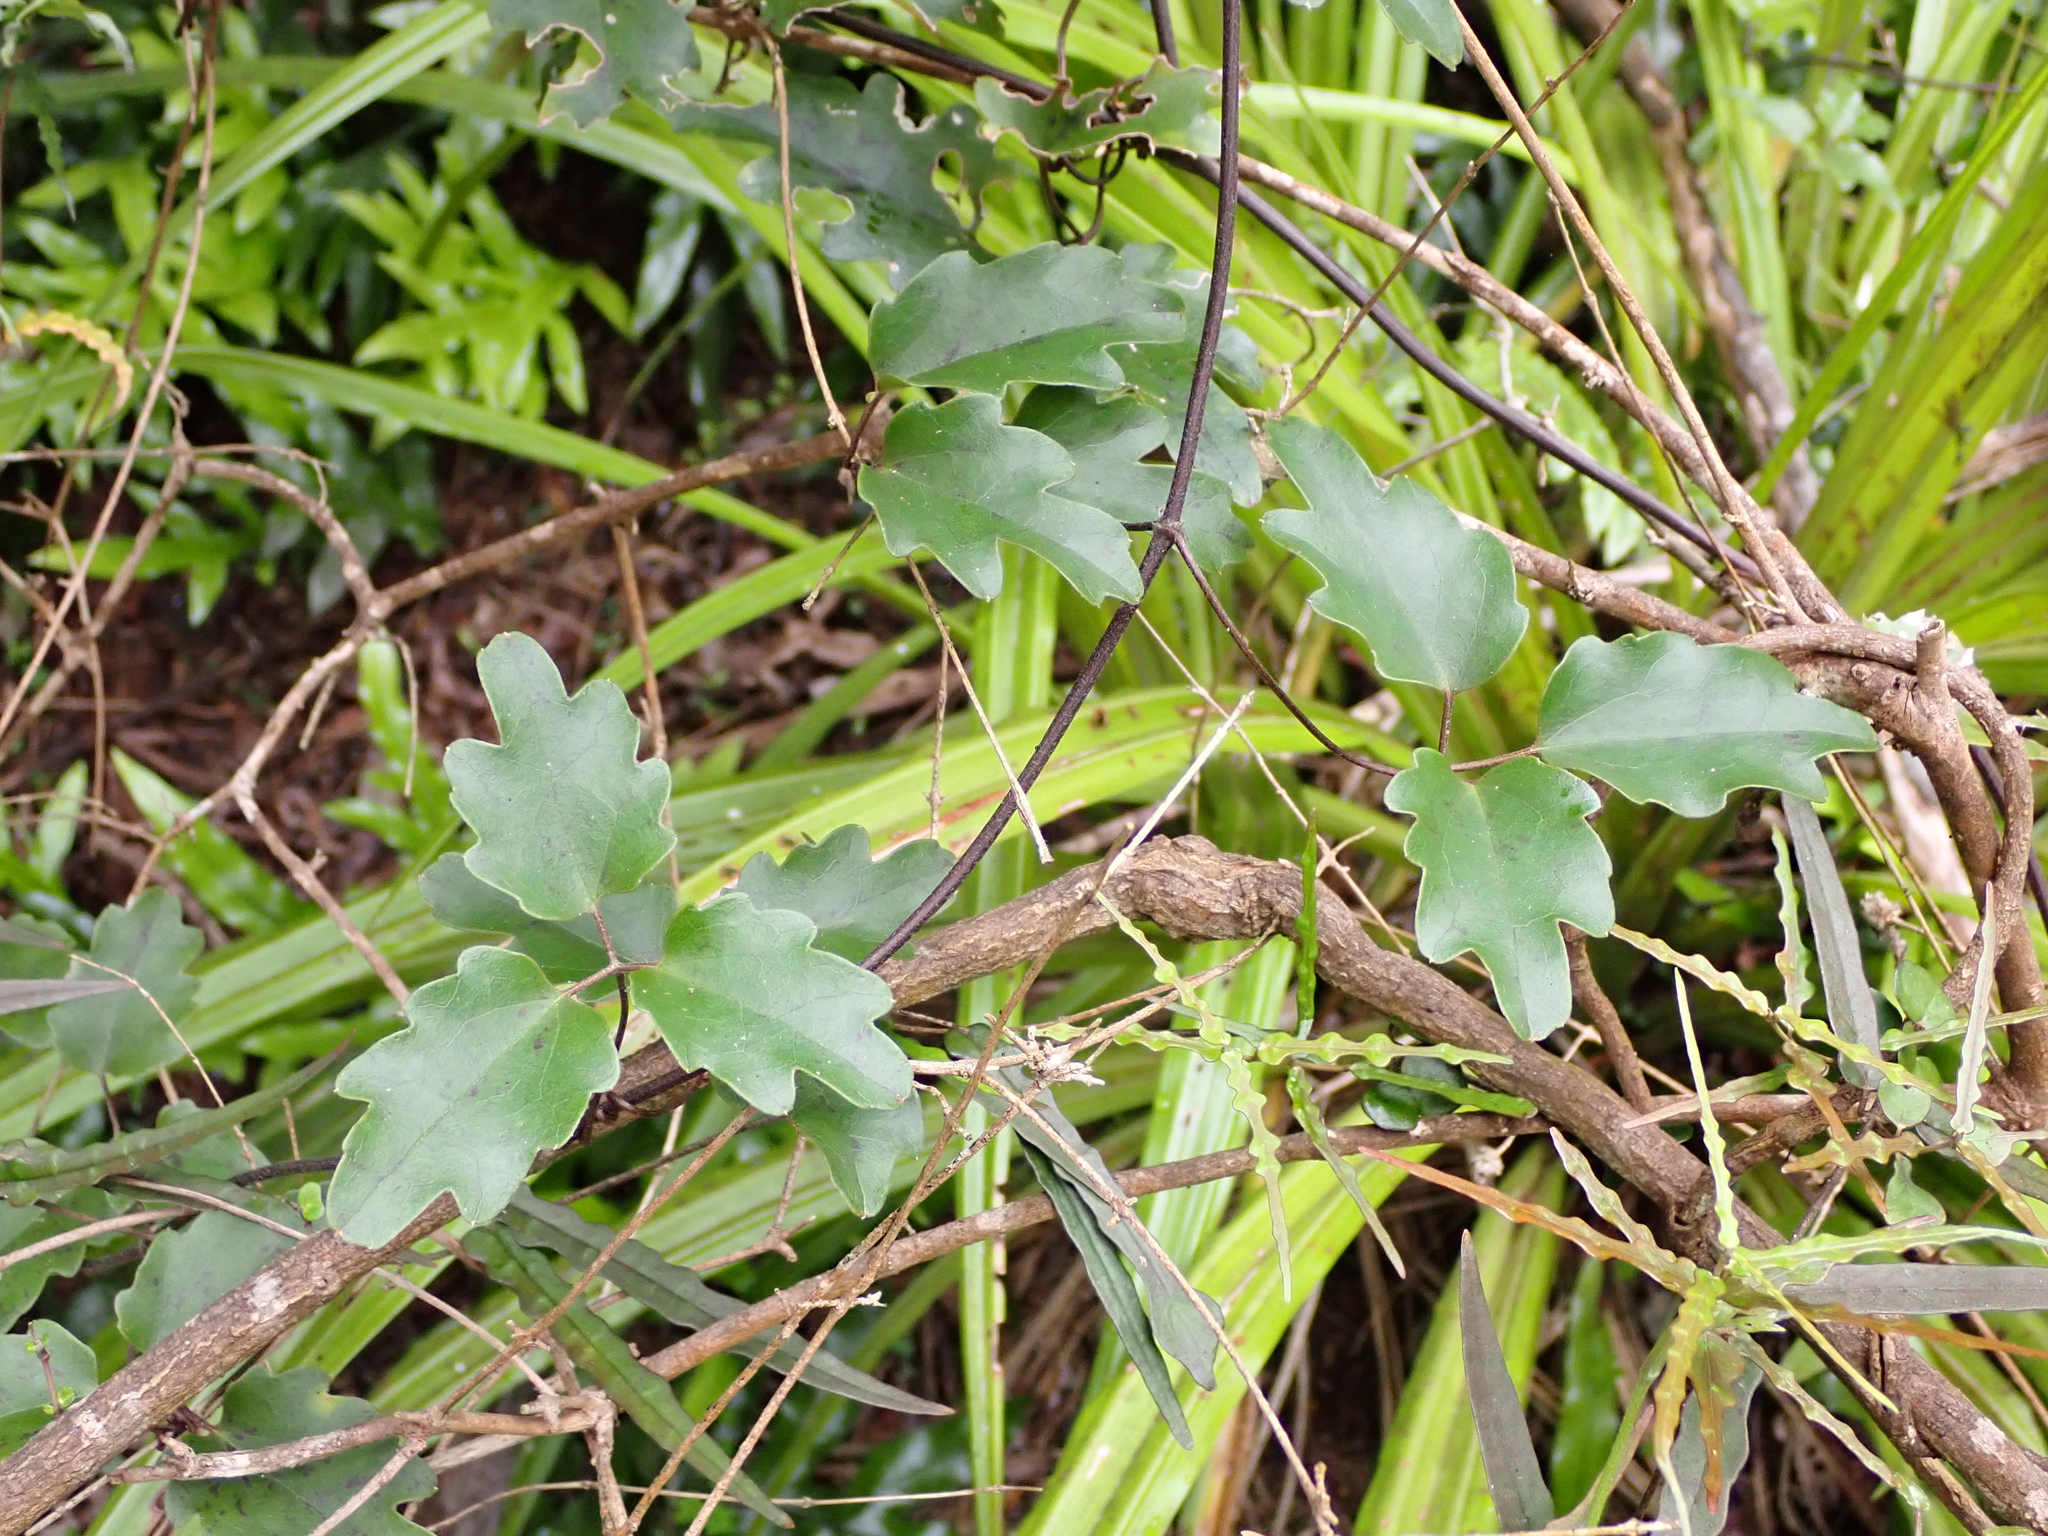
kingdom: Plantae
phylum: Tracheophyta
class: Magnoliopsida
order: Ranunculales
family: Ranunculaceae
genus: Clematis
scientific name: Clematis paniculata
